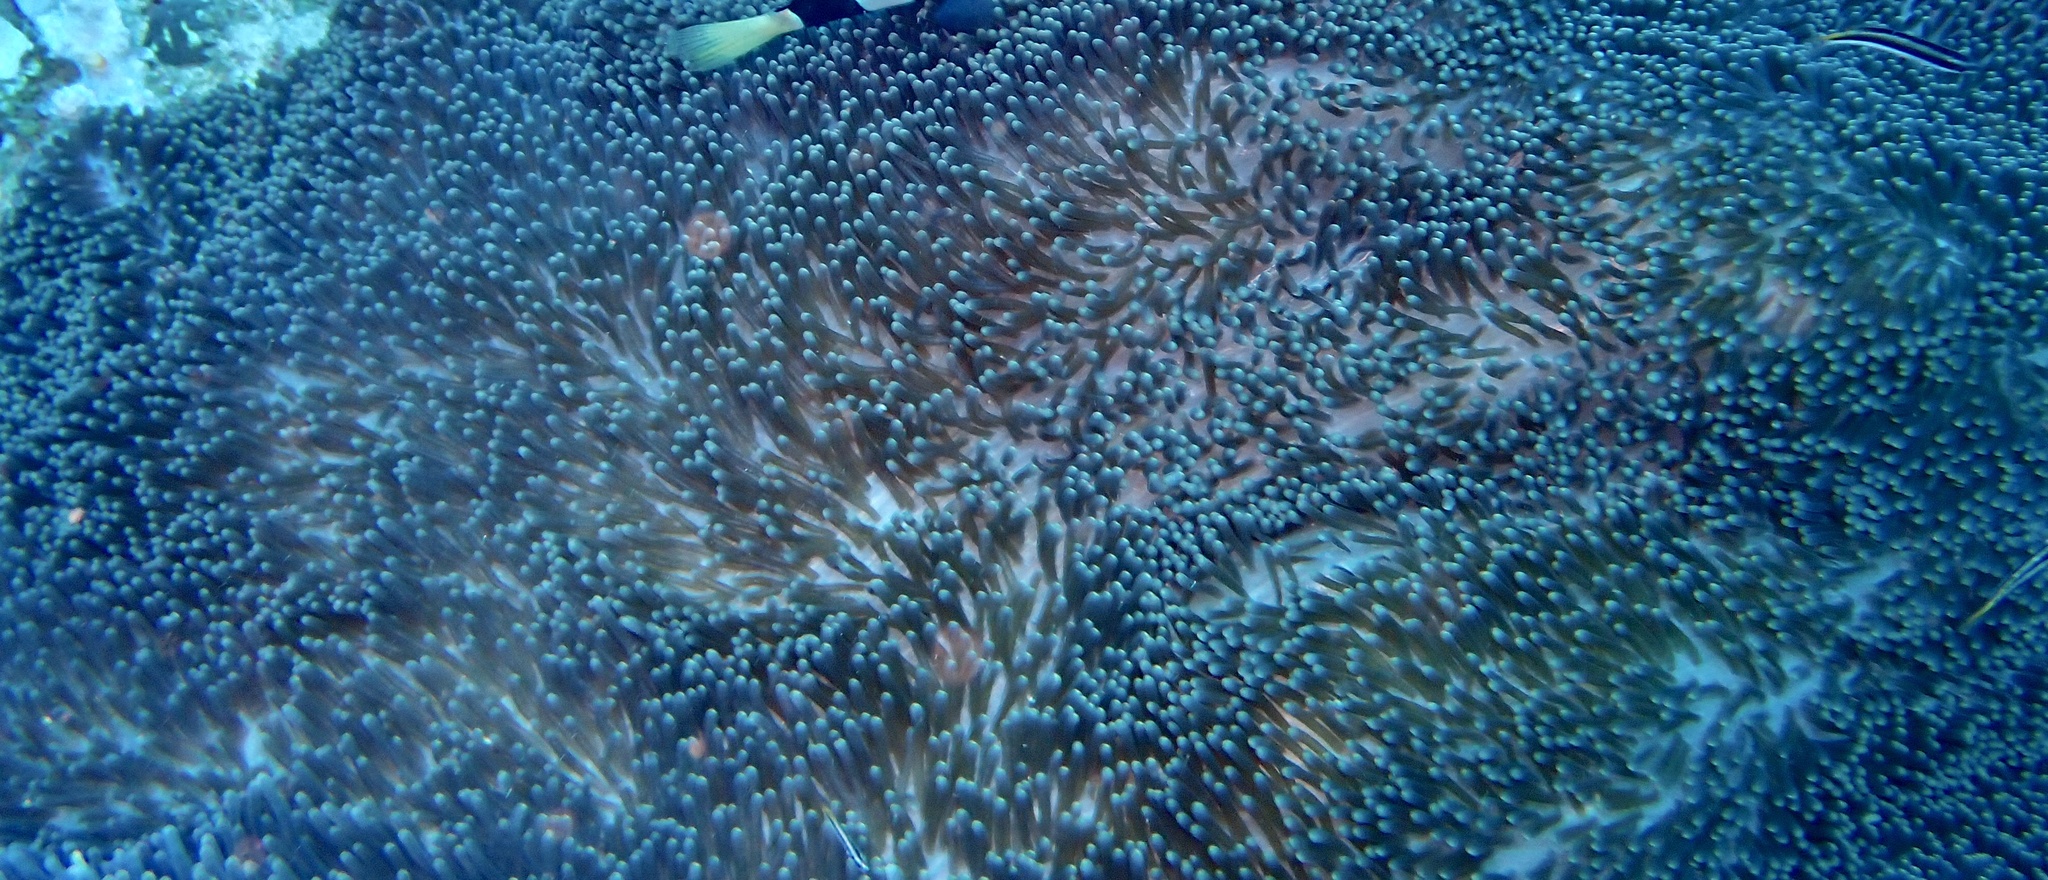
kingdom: Animalia
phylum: Cnidaria
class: Anthozoa
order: Actiniaria
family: Stichodactylidae
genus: Stichodactyla
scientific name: Stichodactyla mertensii
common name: Merten's sea anemone
